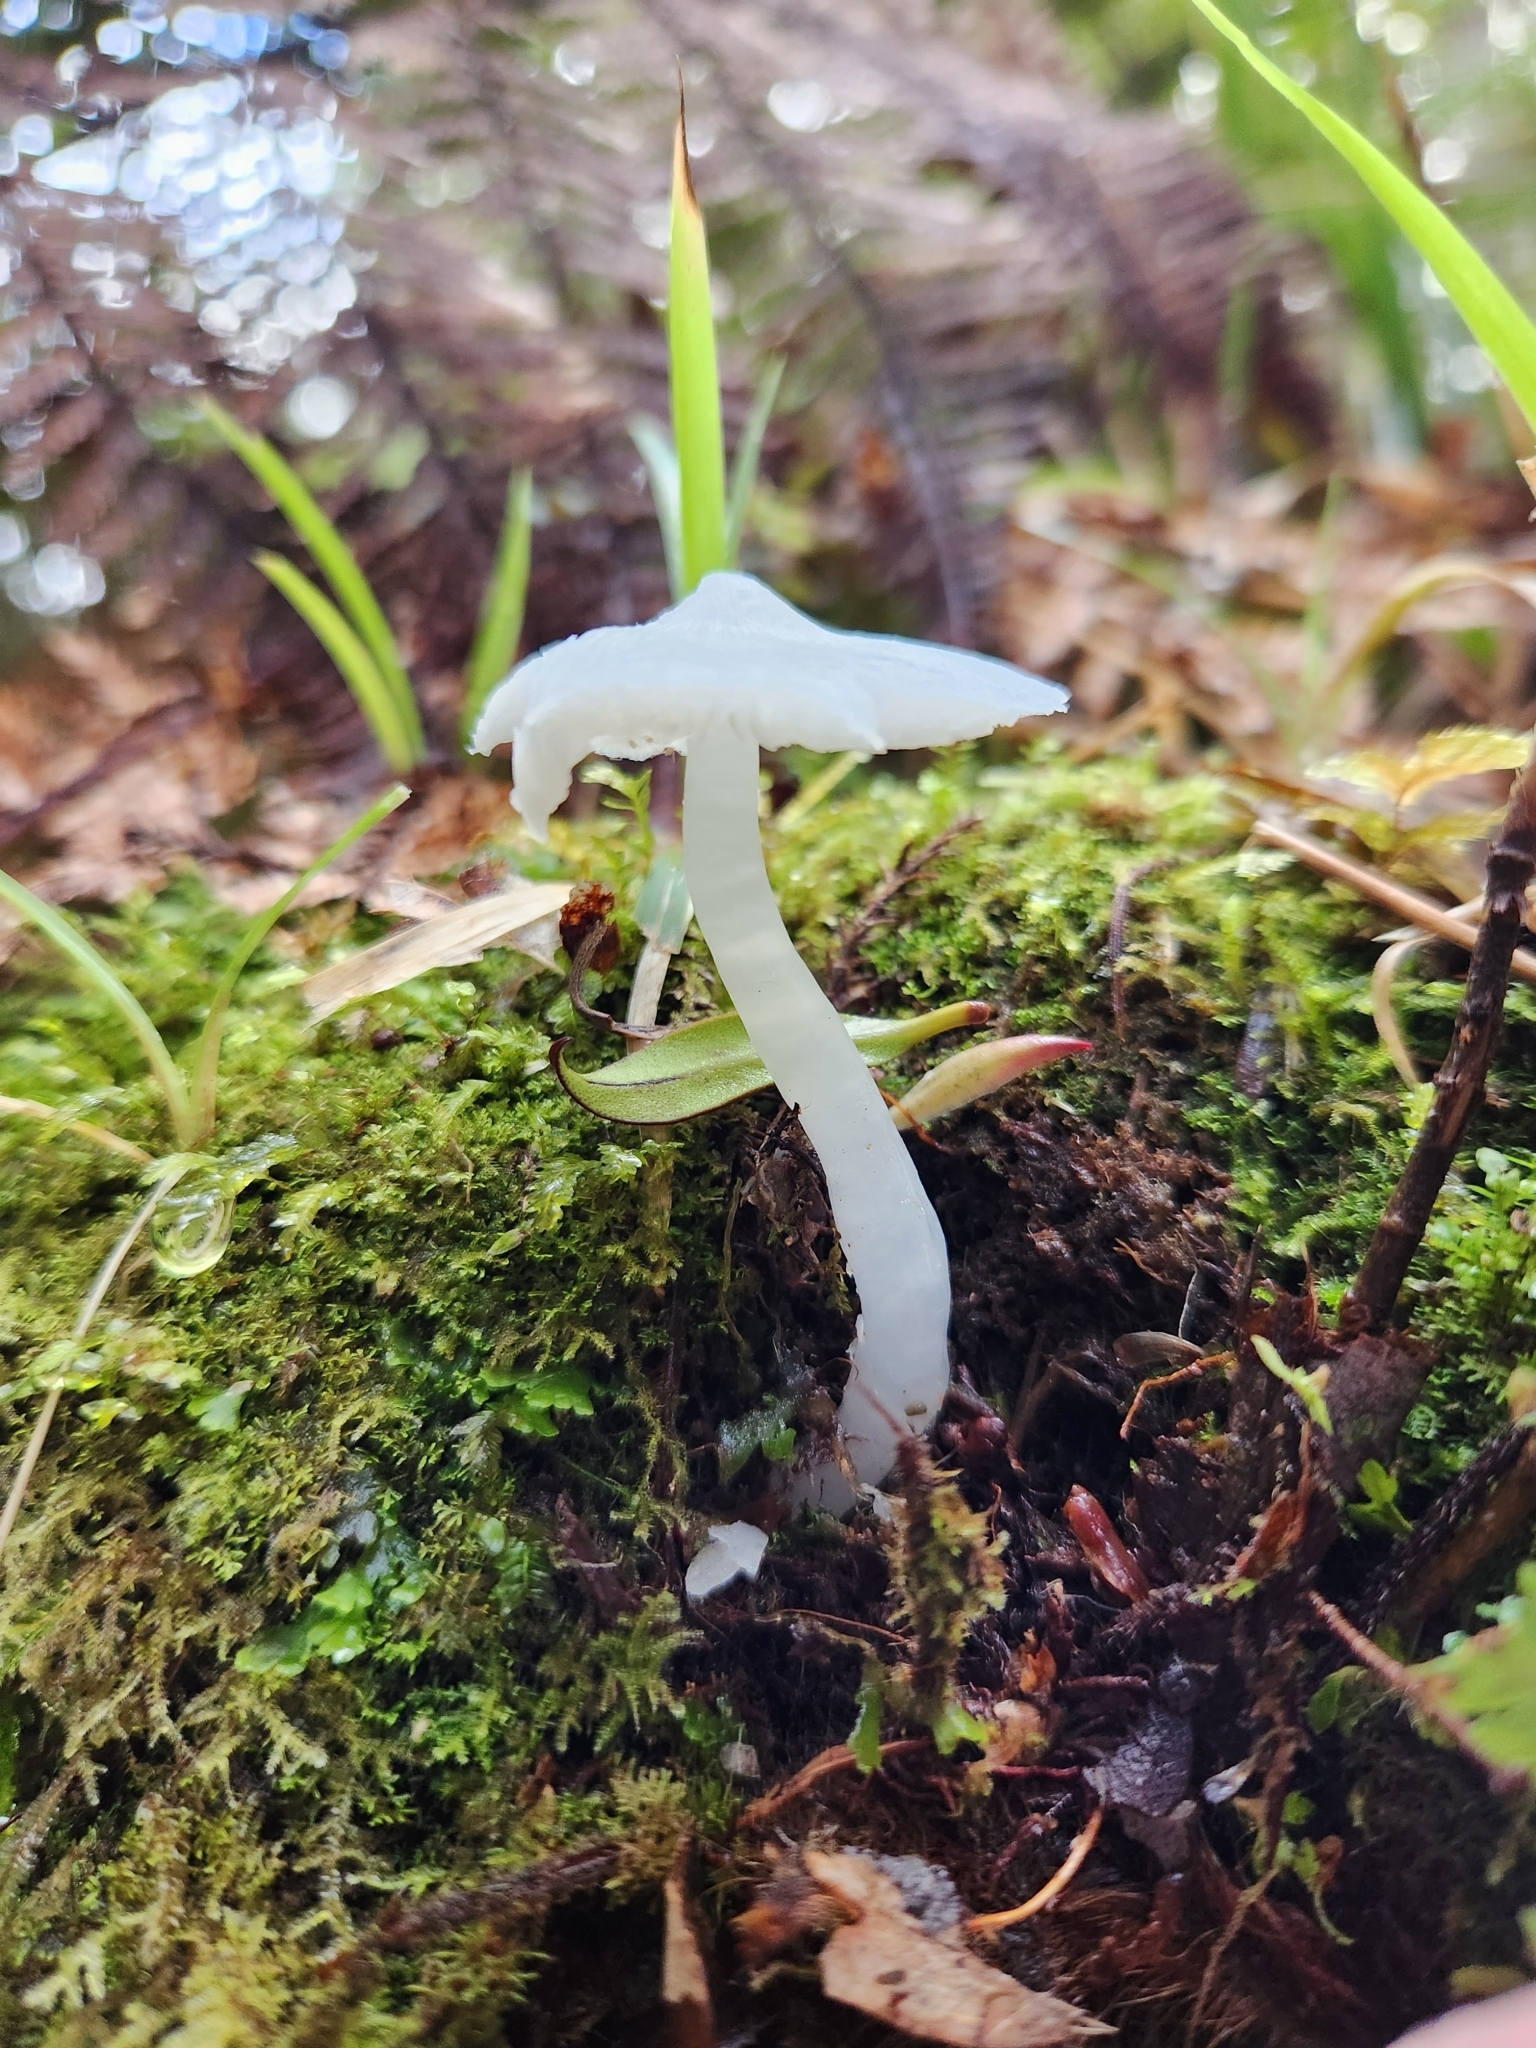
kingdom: Fungi
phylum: Basidiomycota
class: Agaricomycetes
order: Agaricales
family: Hygrophoraceae
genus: Humidicutis
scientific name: Humidicutis mavis
